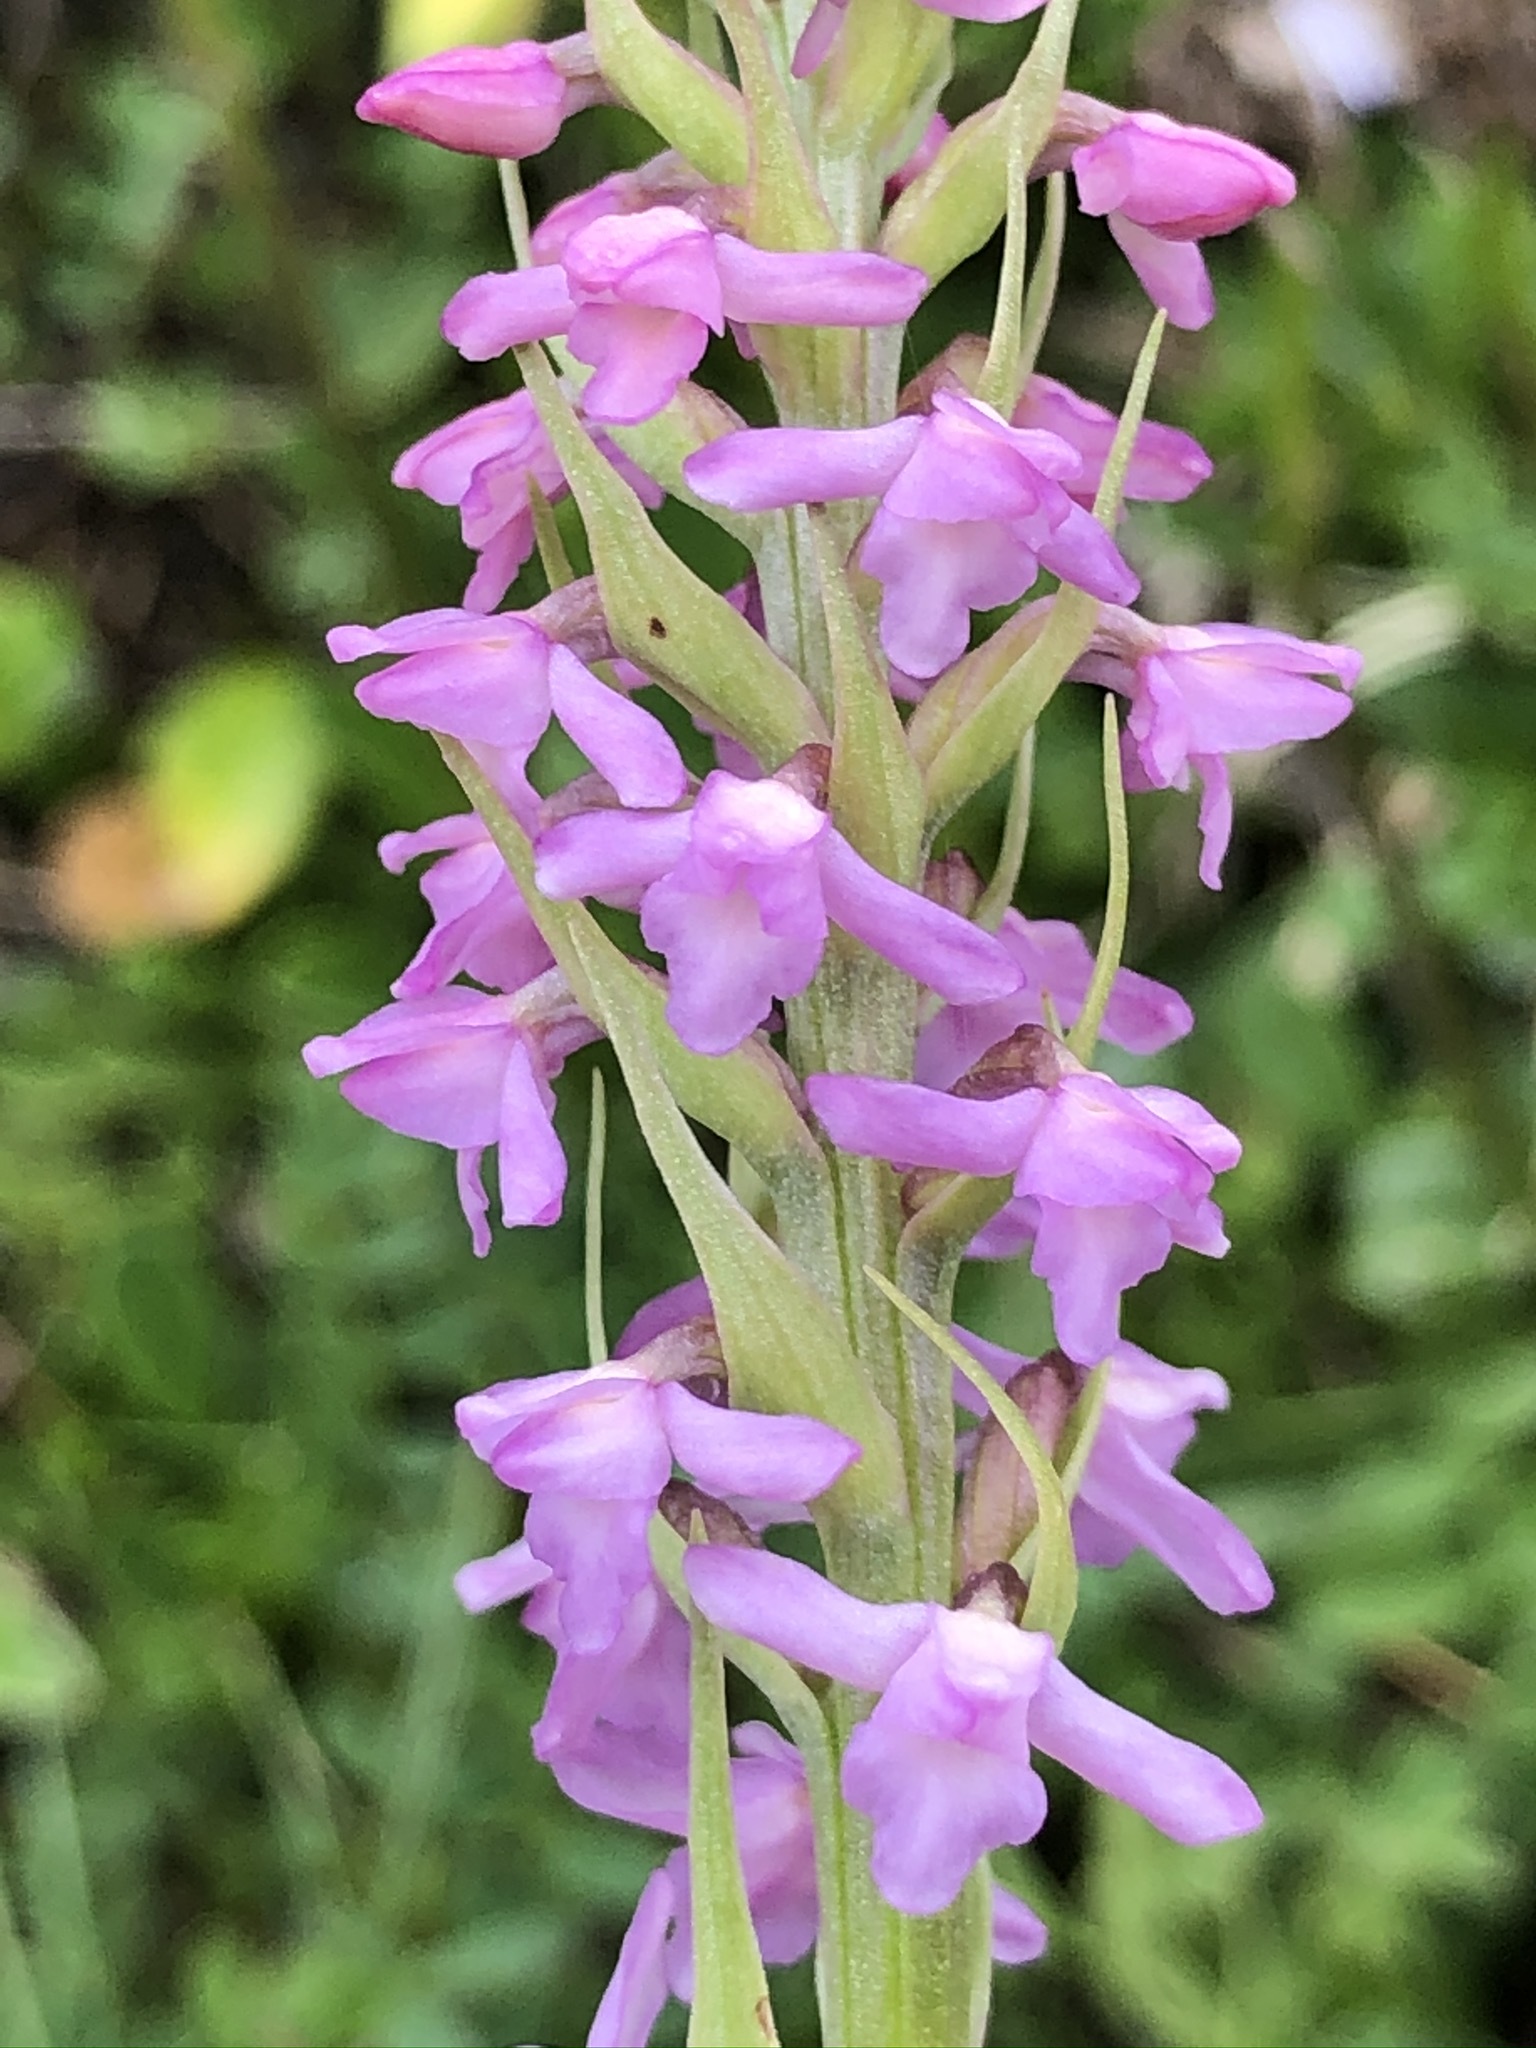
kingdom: Plantae
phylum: Tracheophyta
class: Liliopsida
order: Asparagales
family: Orchidaceae
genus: Gymnadenia
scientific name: Gymnadenia odoratissima
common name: Scented gymnadenia
